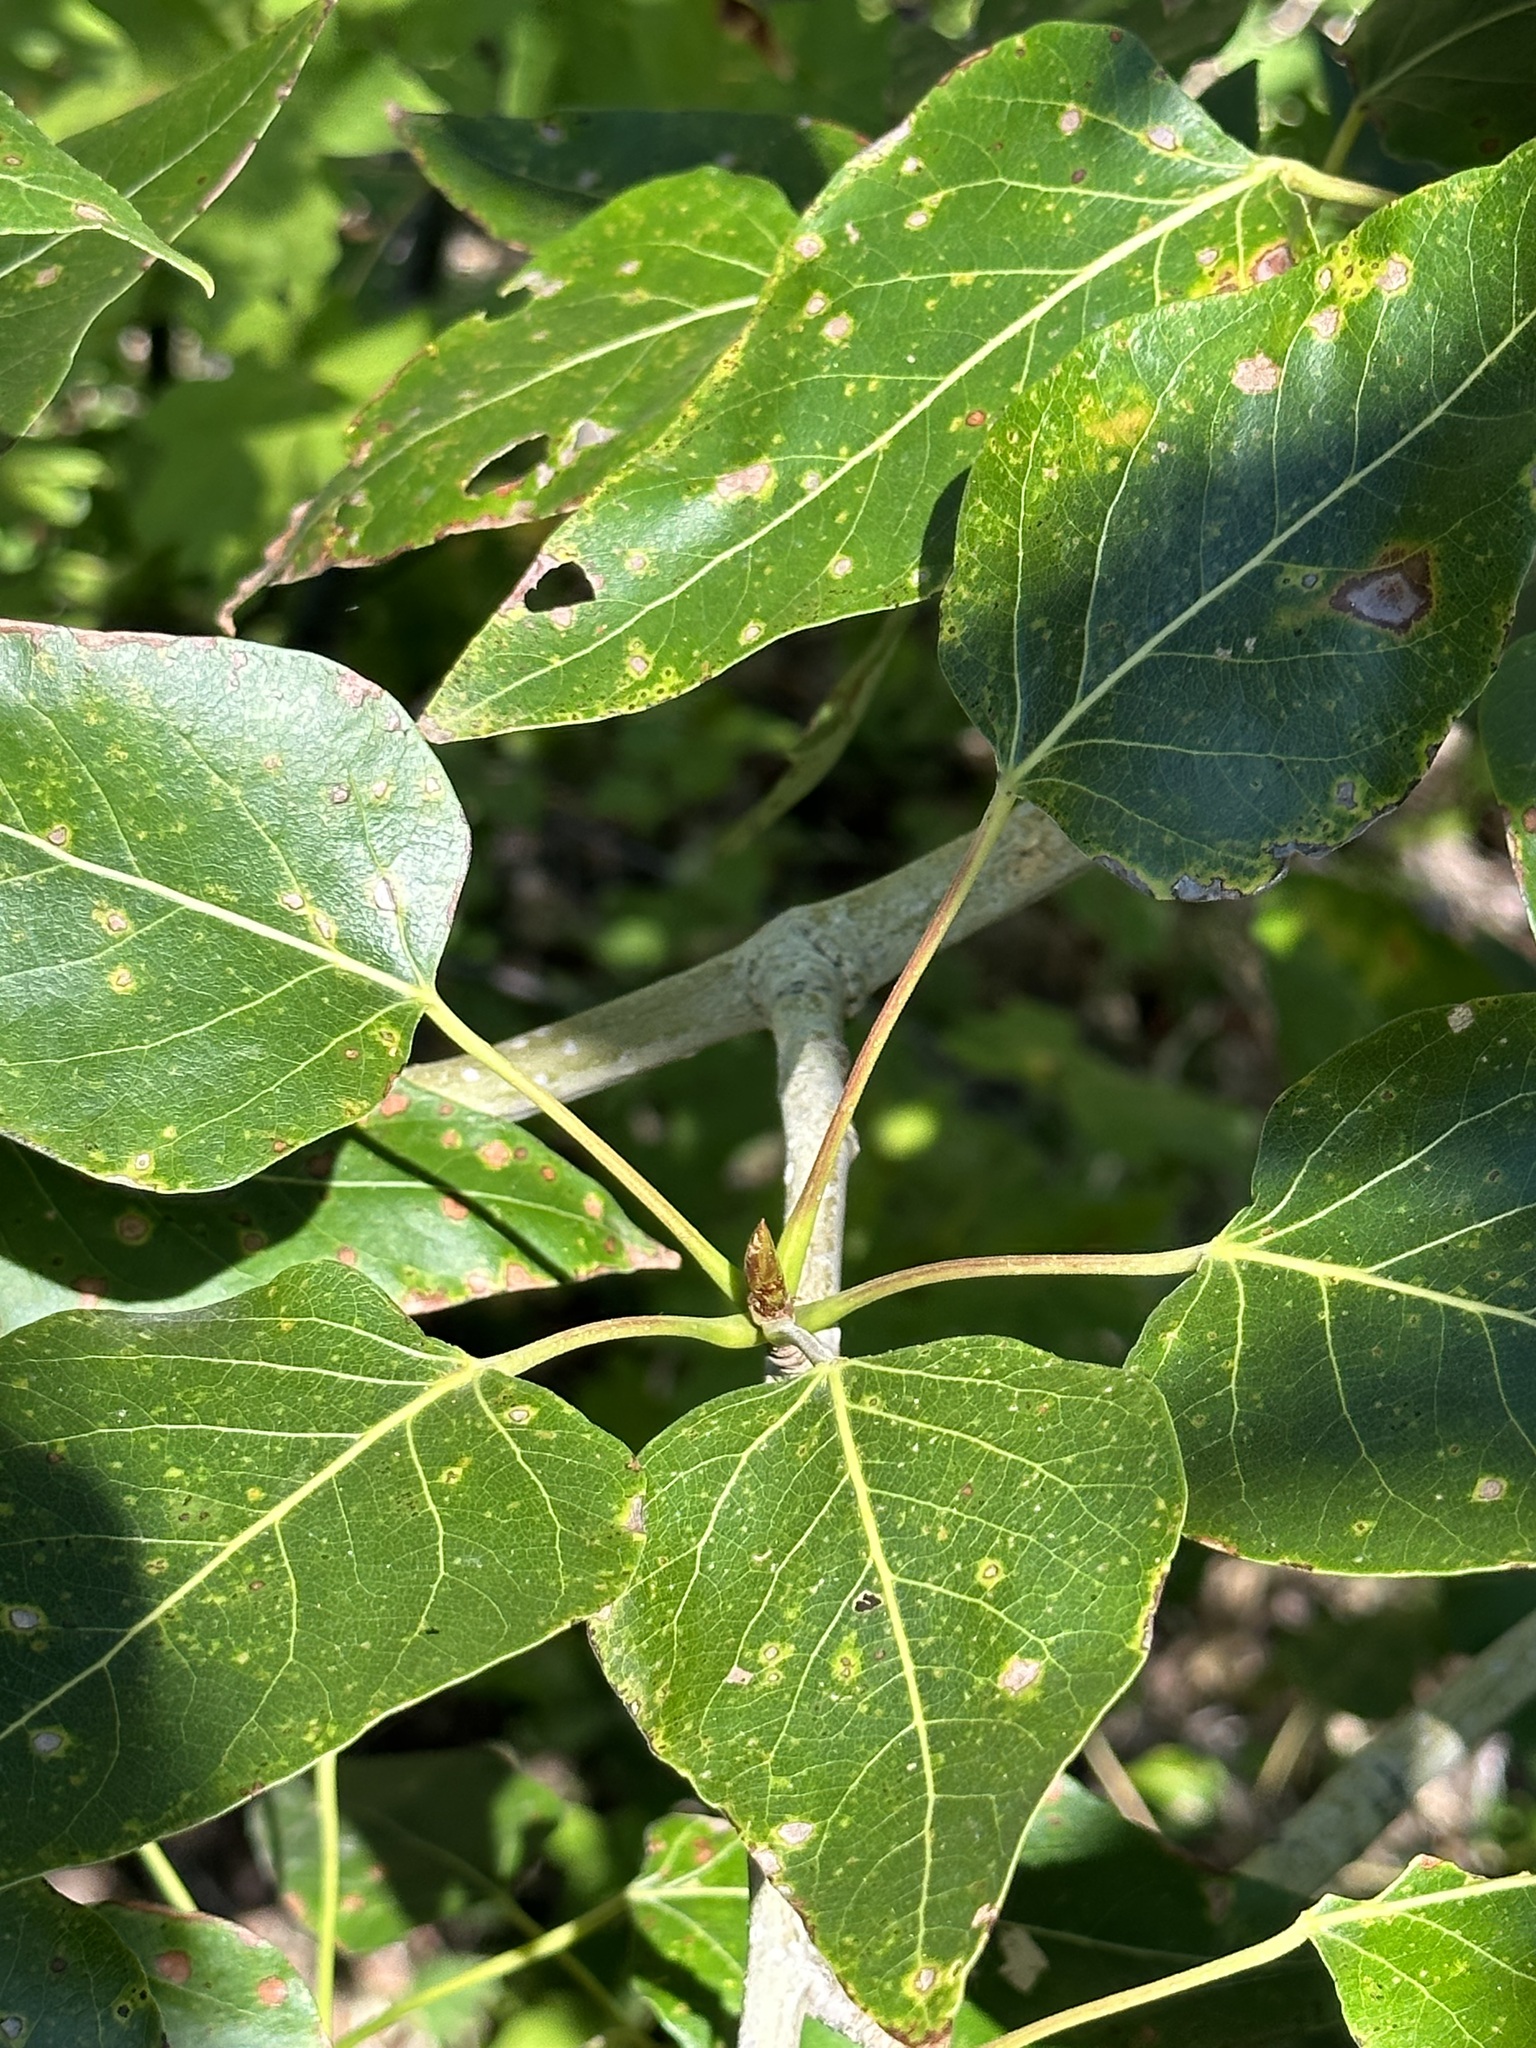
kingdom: Plantae
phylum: Tracheophyta
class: Magnoliopsida
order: Malpighiales
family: Salicaceae
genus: Populus
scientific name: Populus trichocarpa
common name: Black cottonwood
